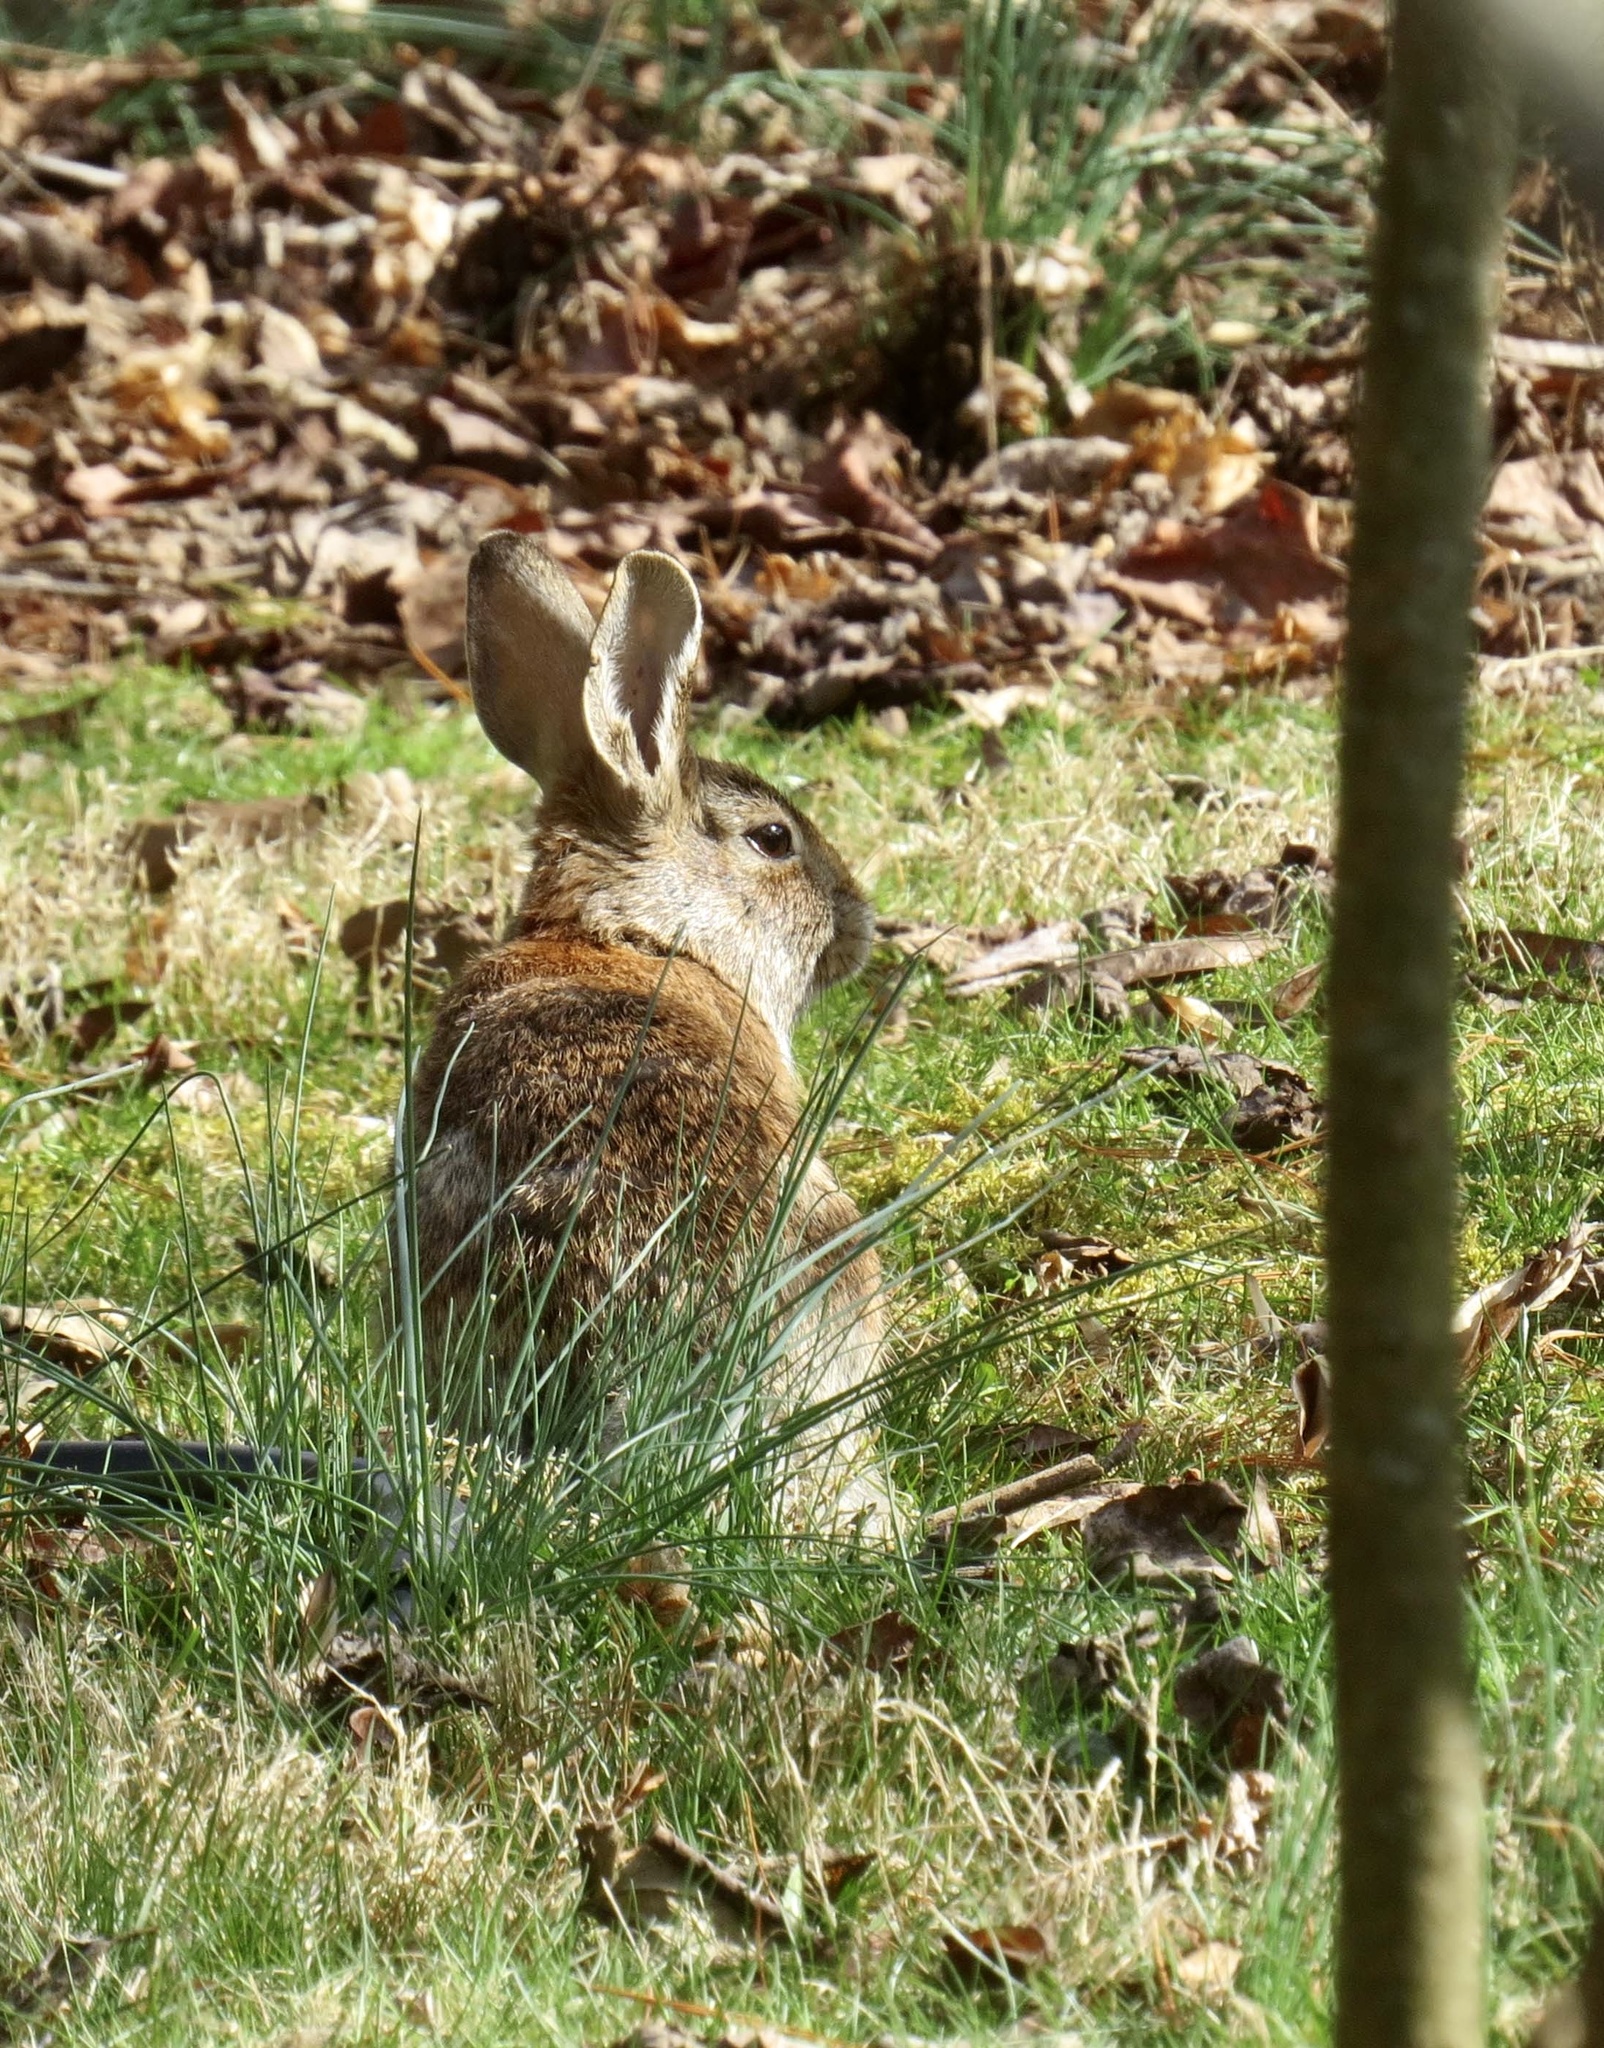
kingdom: Animalia
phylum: Chordata
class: Mammalia
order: Lagomorpha
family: Leporidae
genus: Sylvilagus
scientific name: Sylvilagus floridanus
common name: Eastern cottontail
